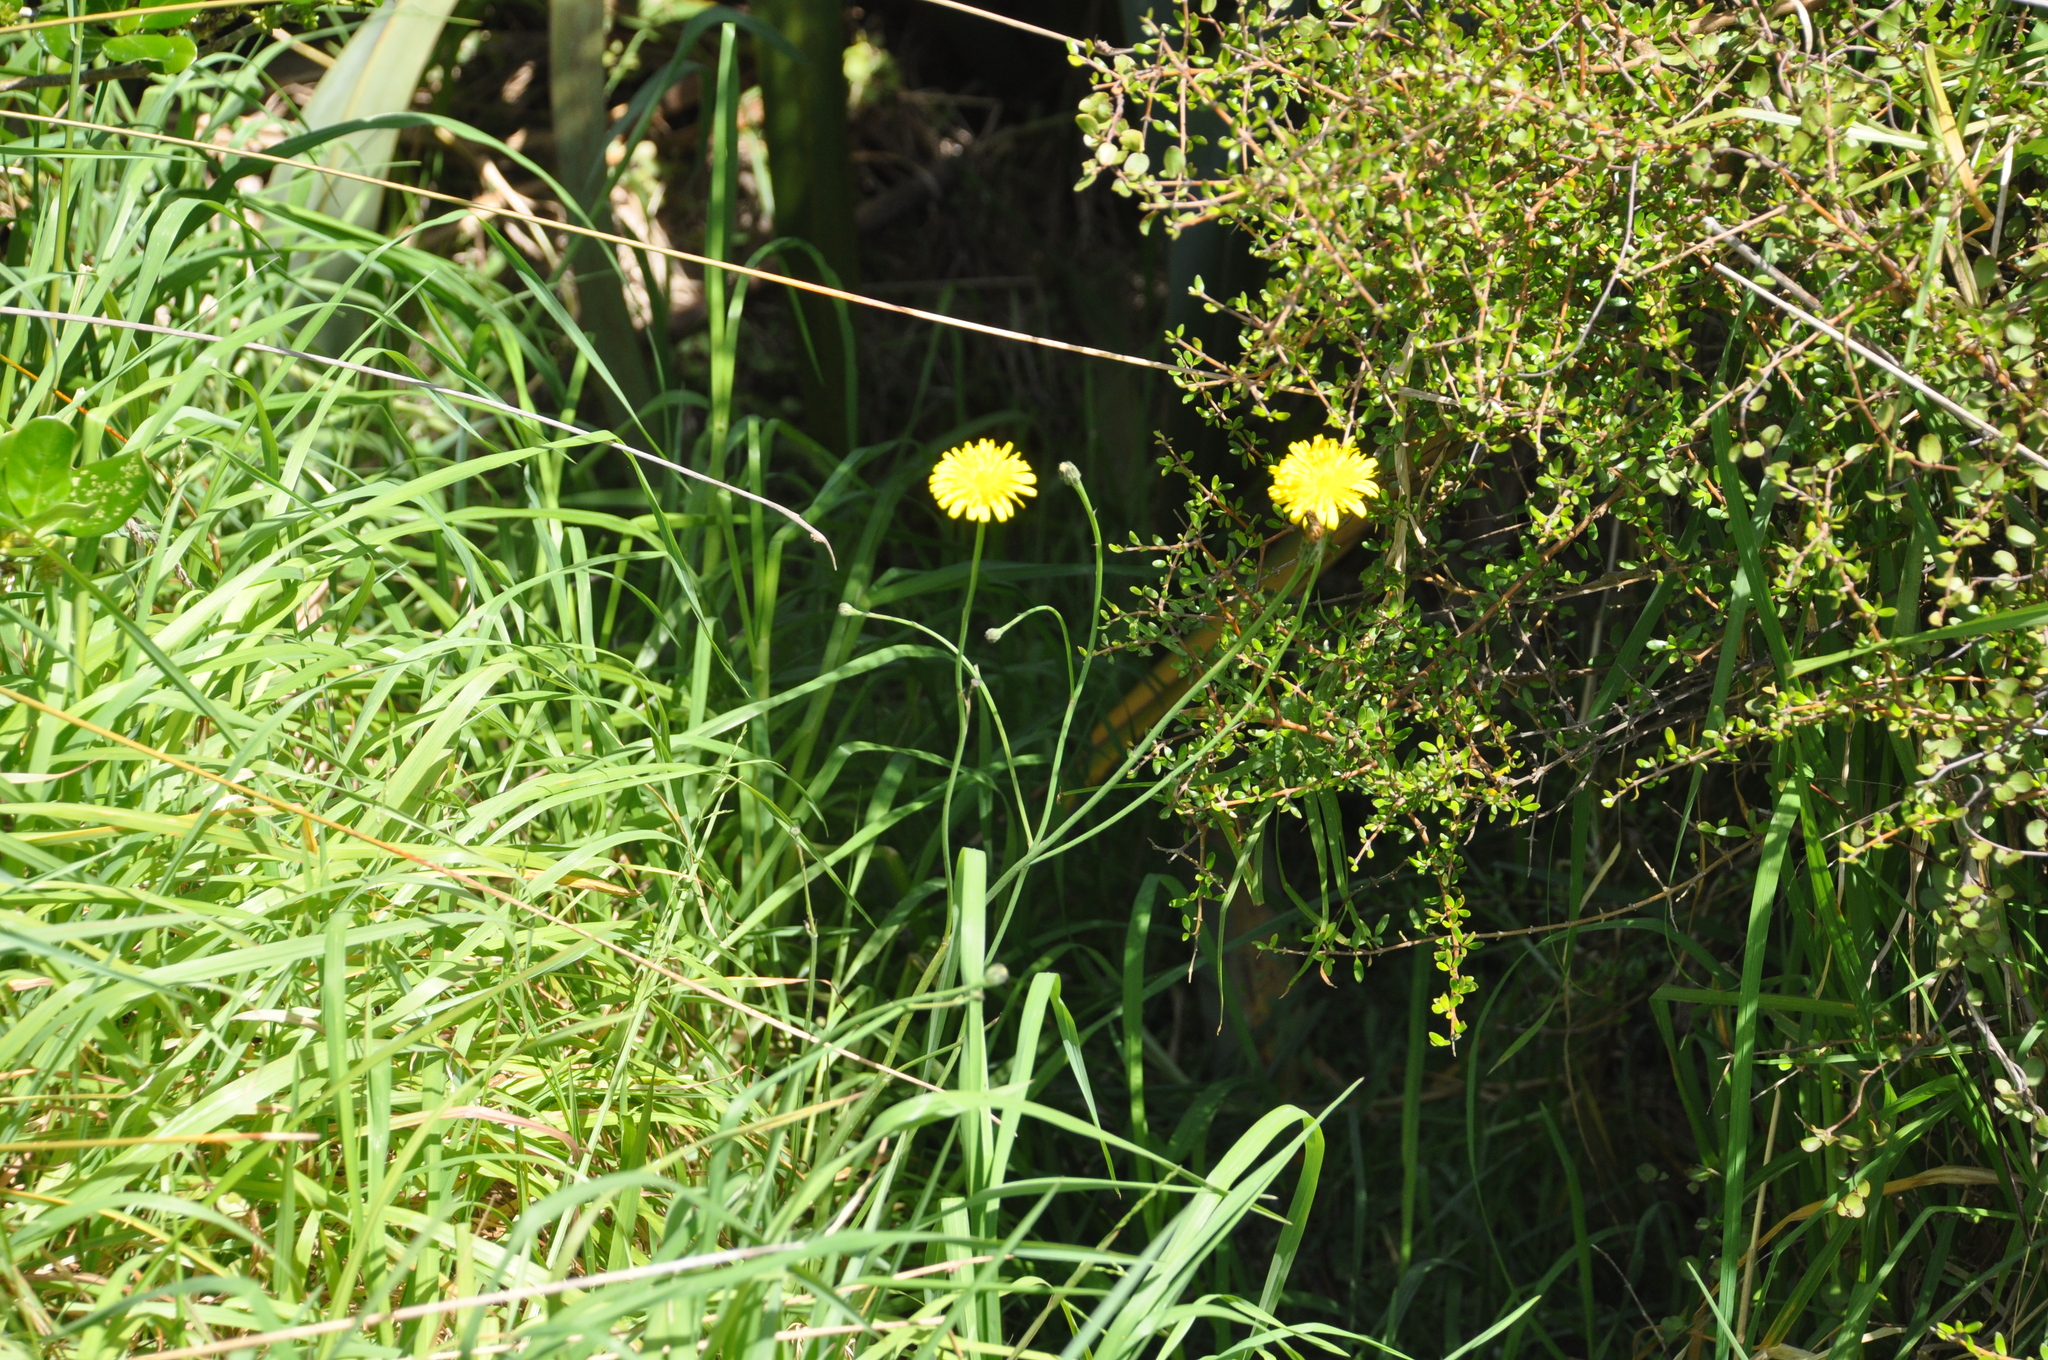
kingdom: Plantae
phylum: Tracheophyta
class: Magnoliopsida
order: Asterales
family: Asteraceae
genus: Hypochaeris
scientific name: Hypochaeris radicata
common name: Flatweed
